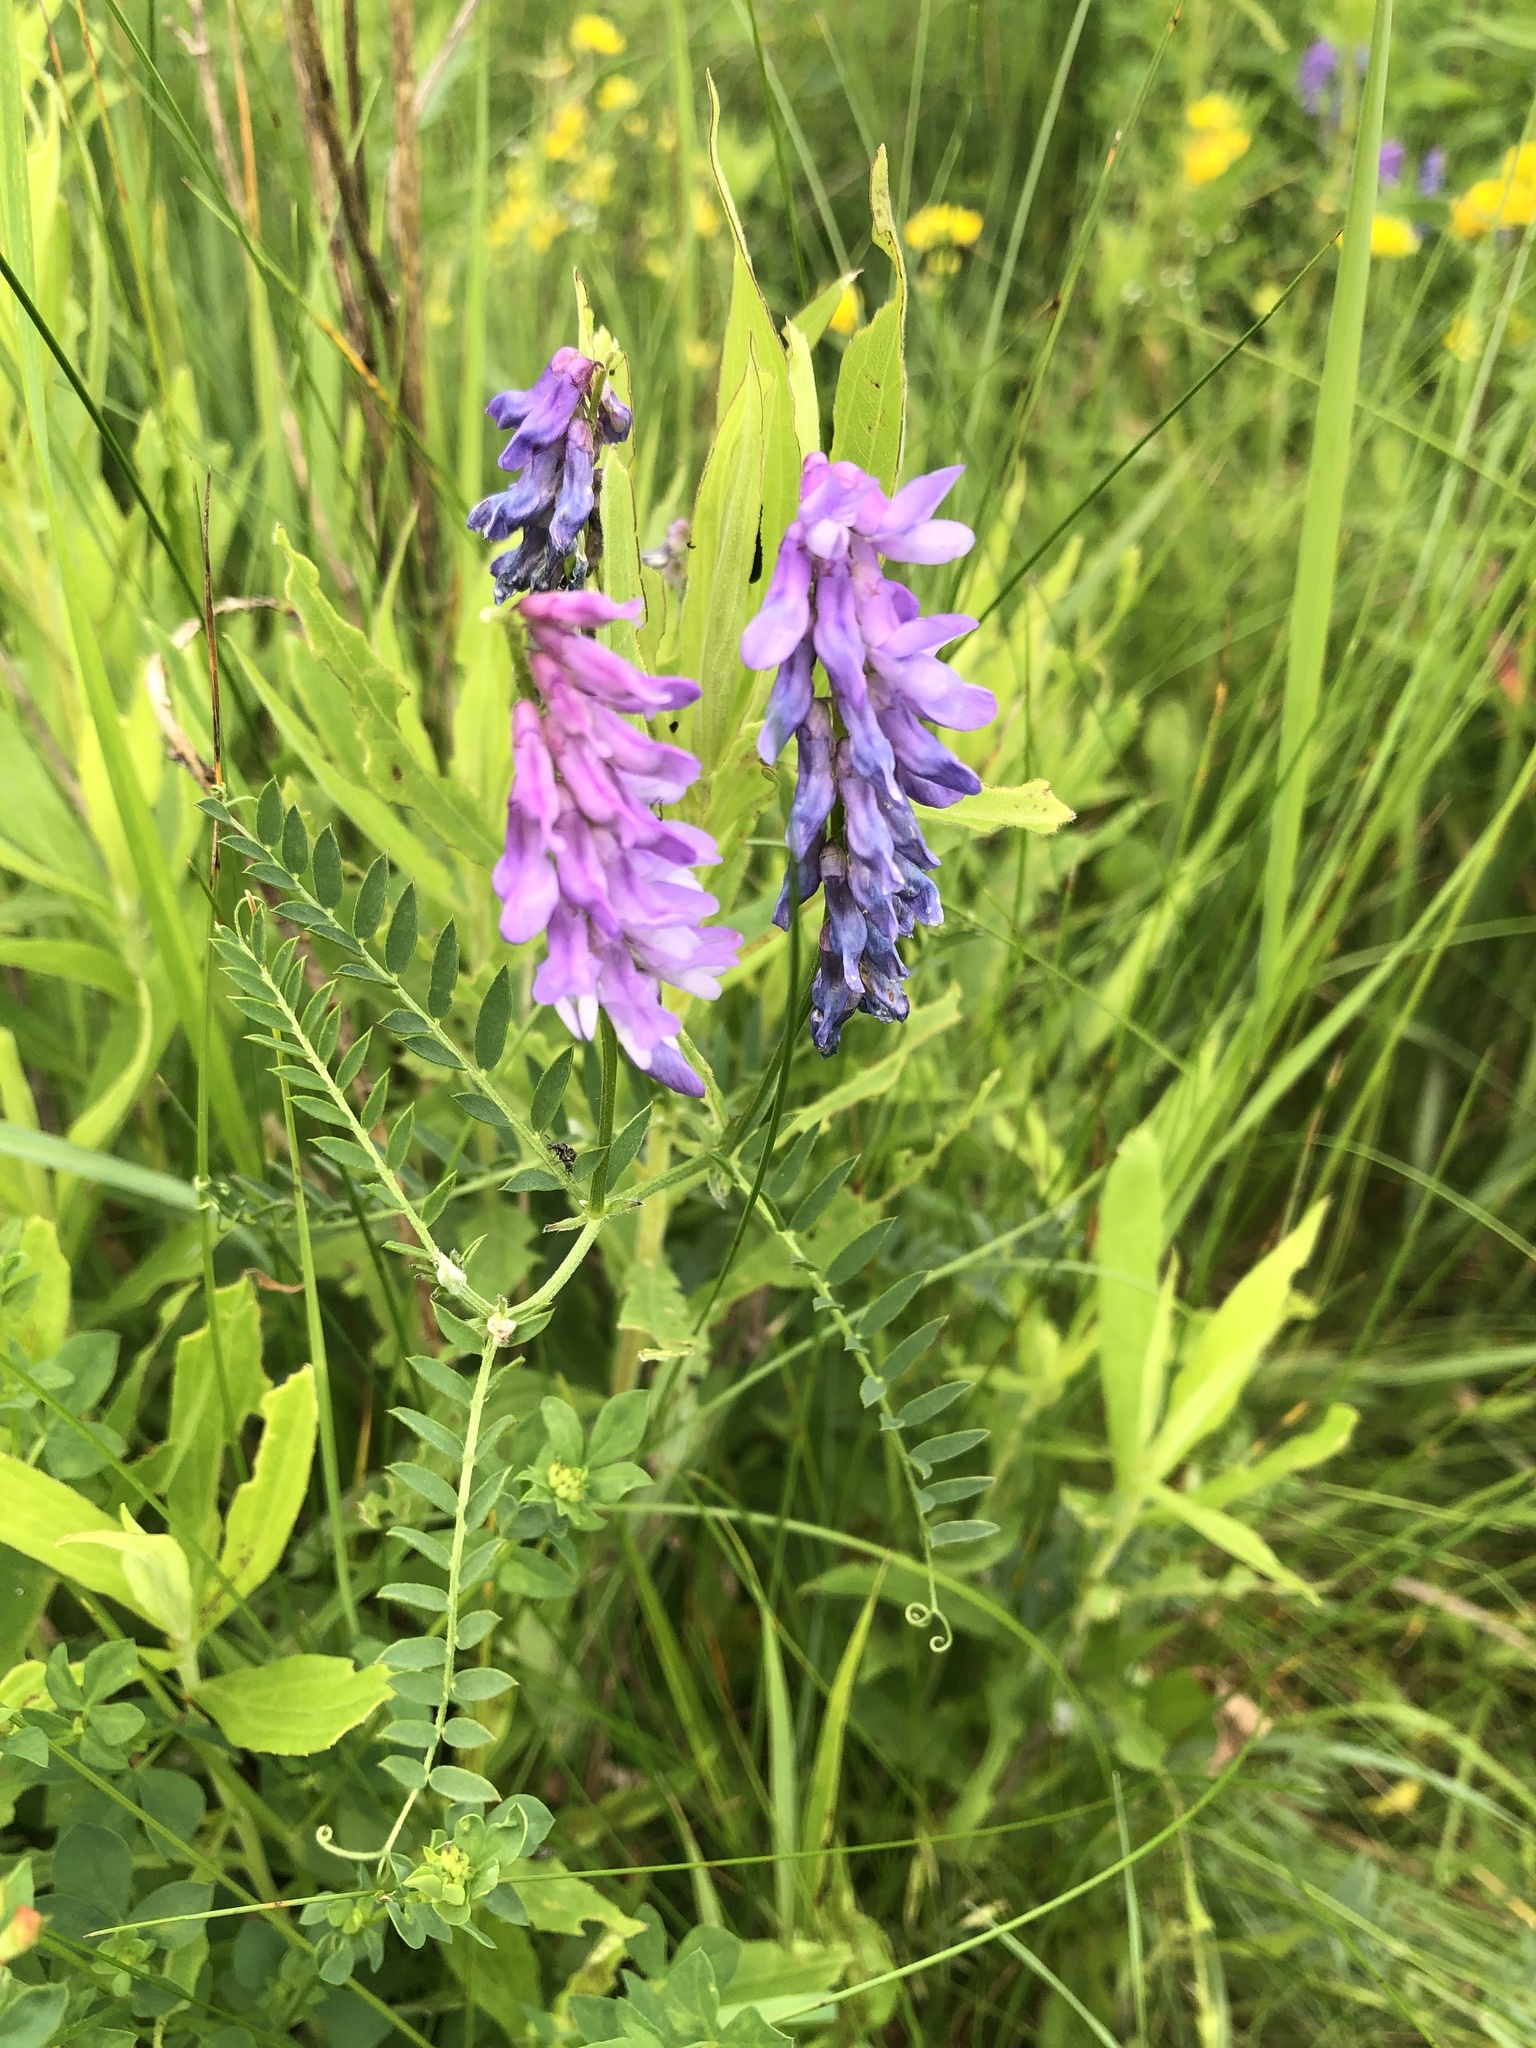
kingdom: Plantae
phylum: Tracheophyta
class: Magnoliopsida
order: Fabales
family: Fabaceae
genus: Vicia
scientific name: Vicia cracca
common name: Bird vetch
